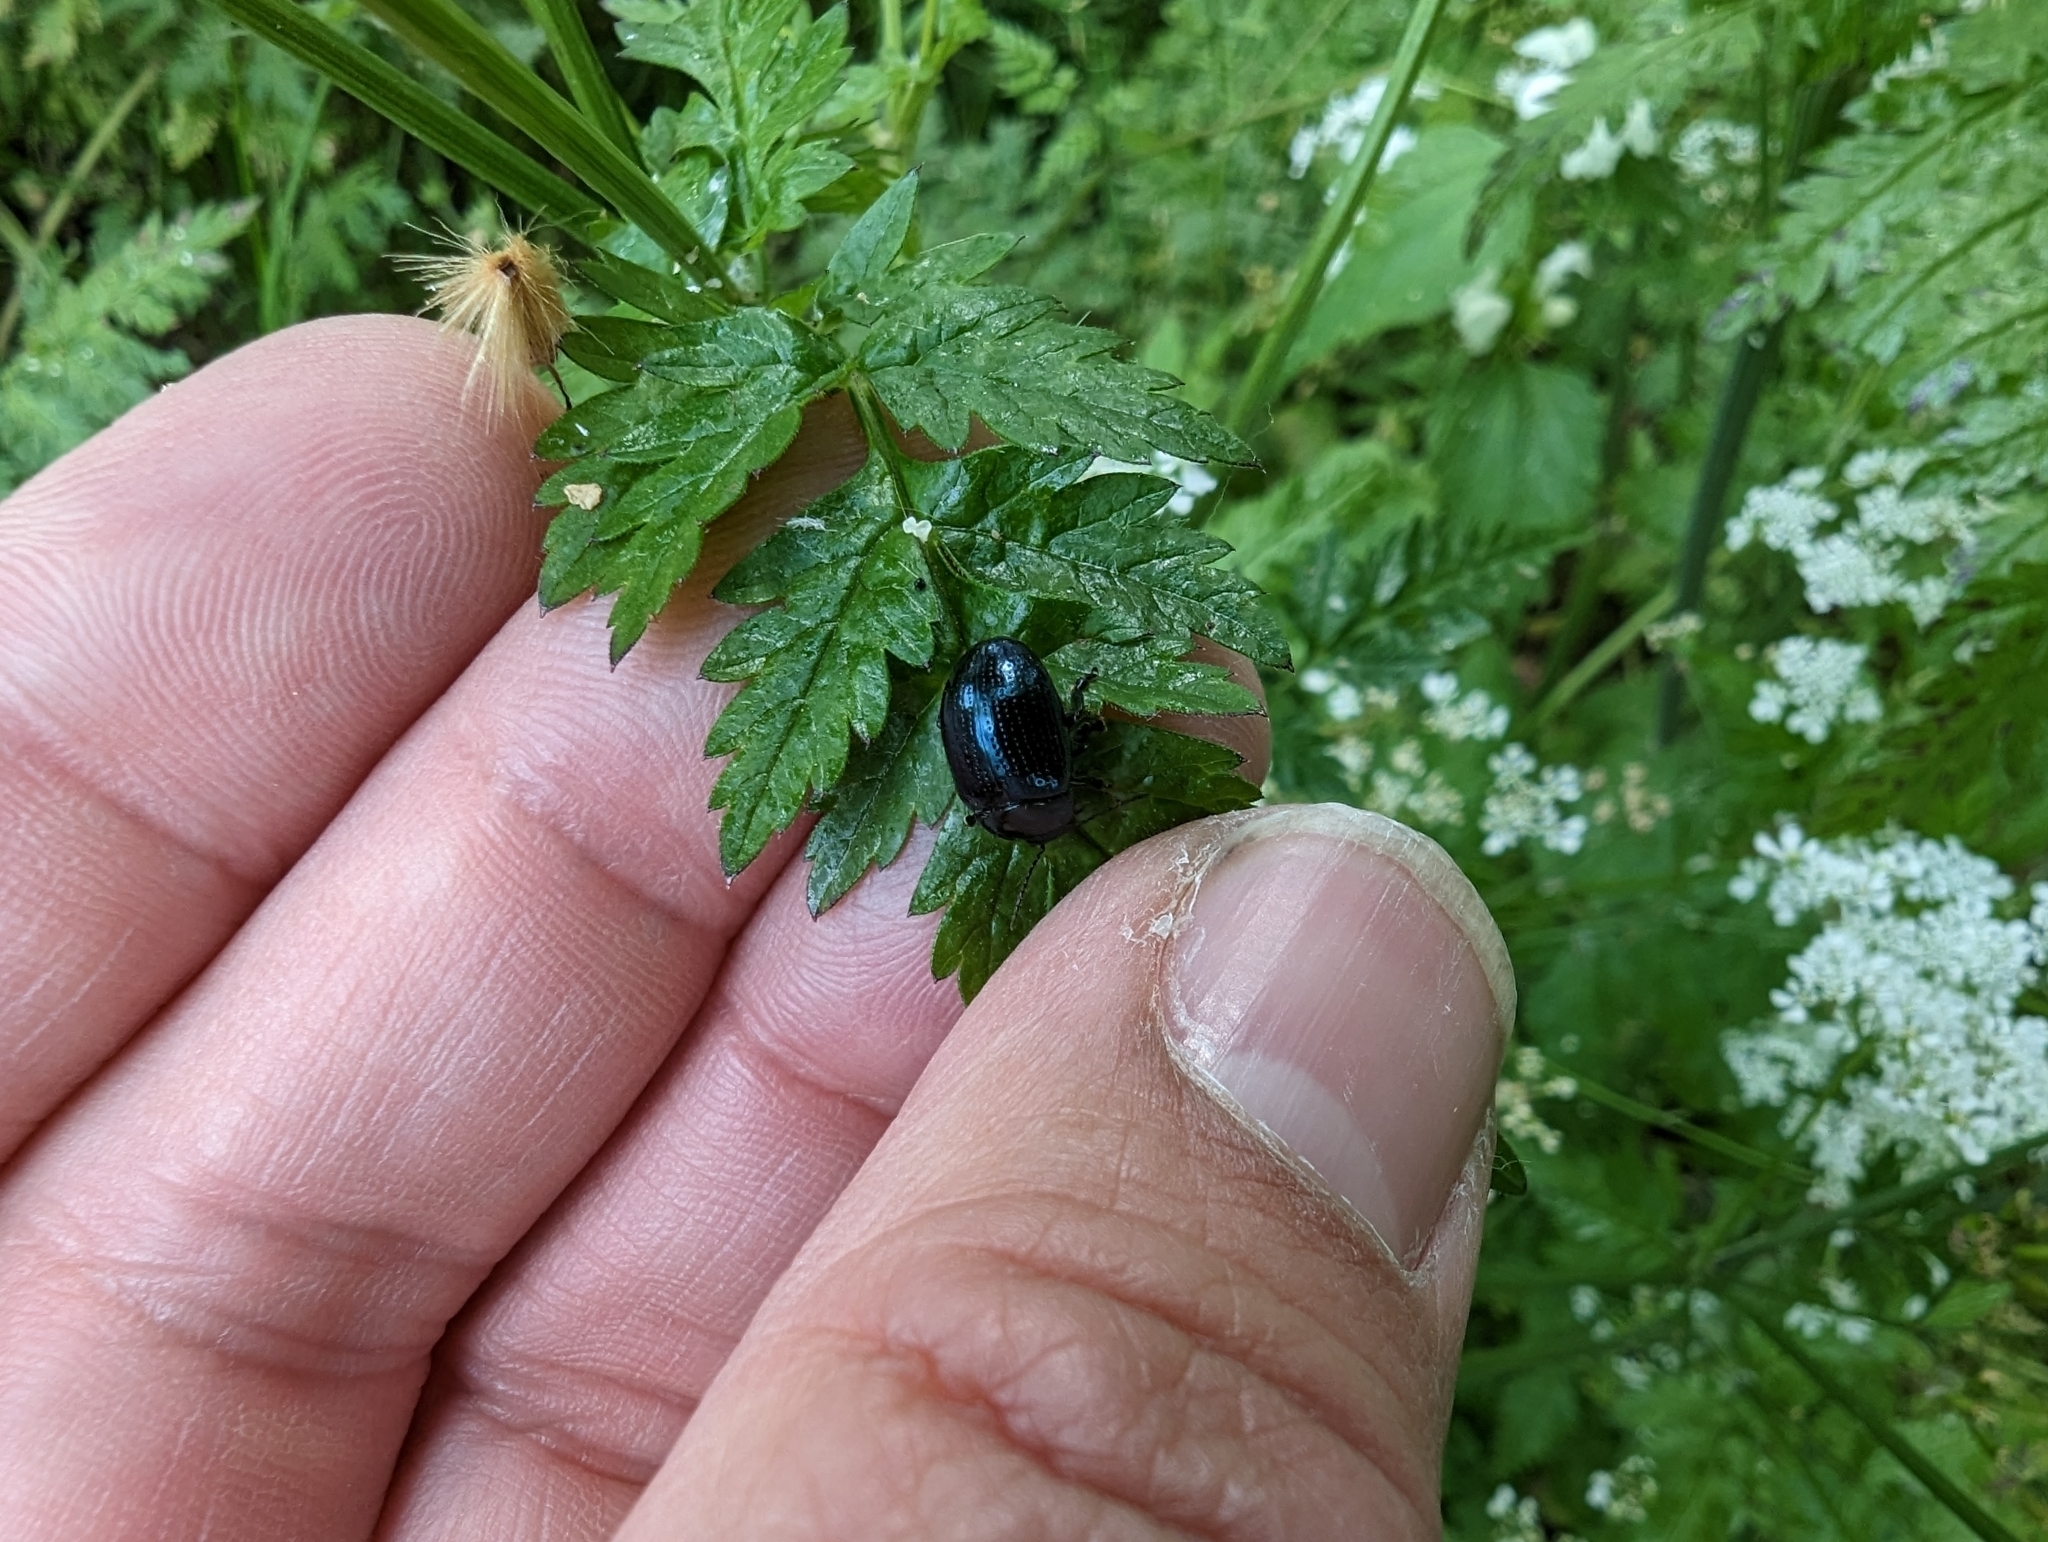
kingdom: Animalia
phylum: Arthropoda
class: Insecta
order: Coleoptera
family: Chrysomelidae
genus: Chrysolina
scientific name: Chrysolina oricalcia
